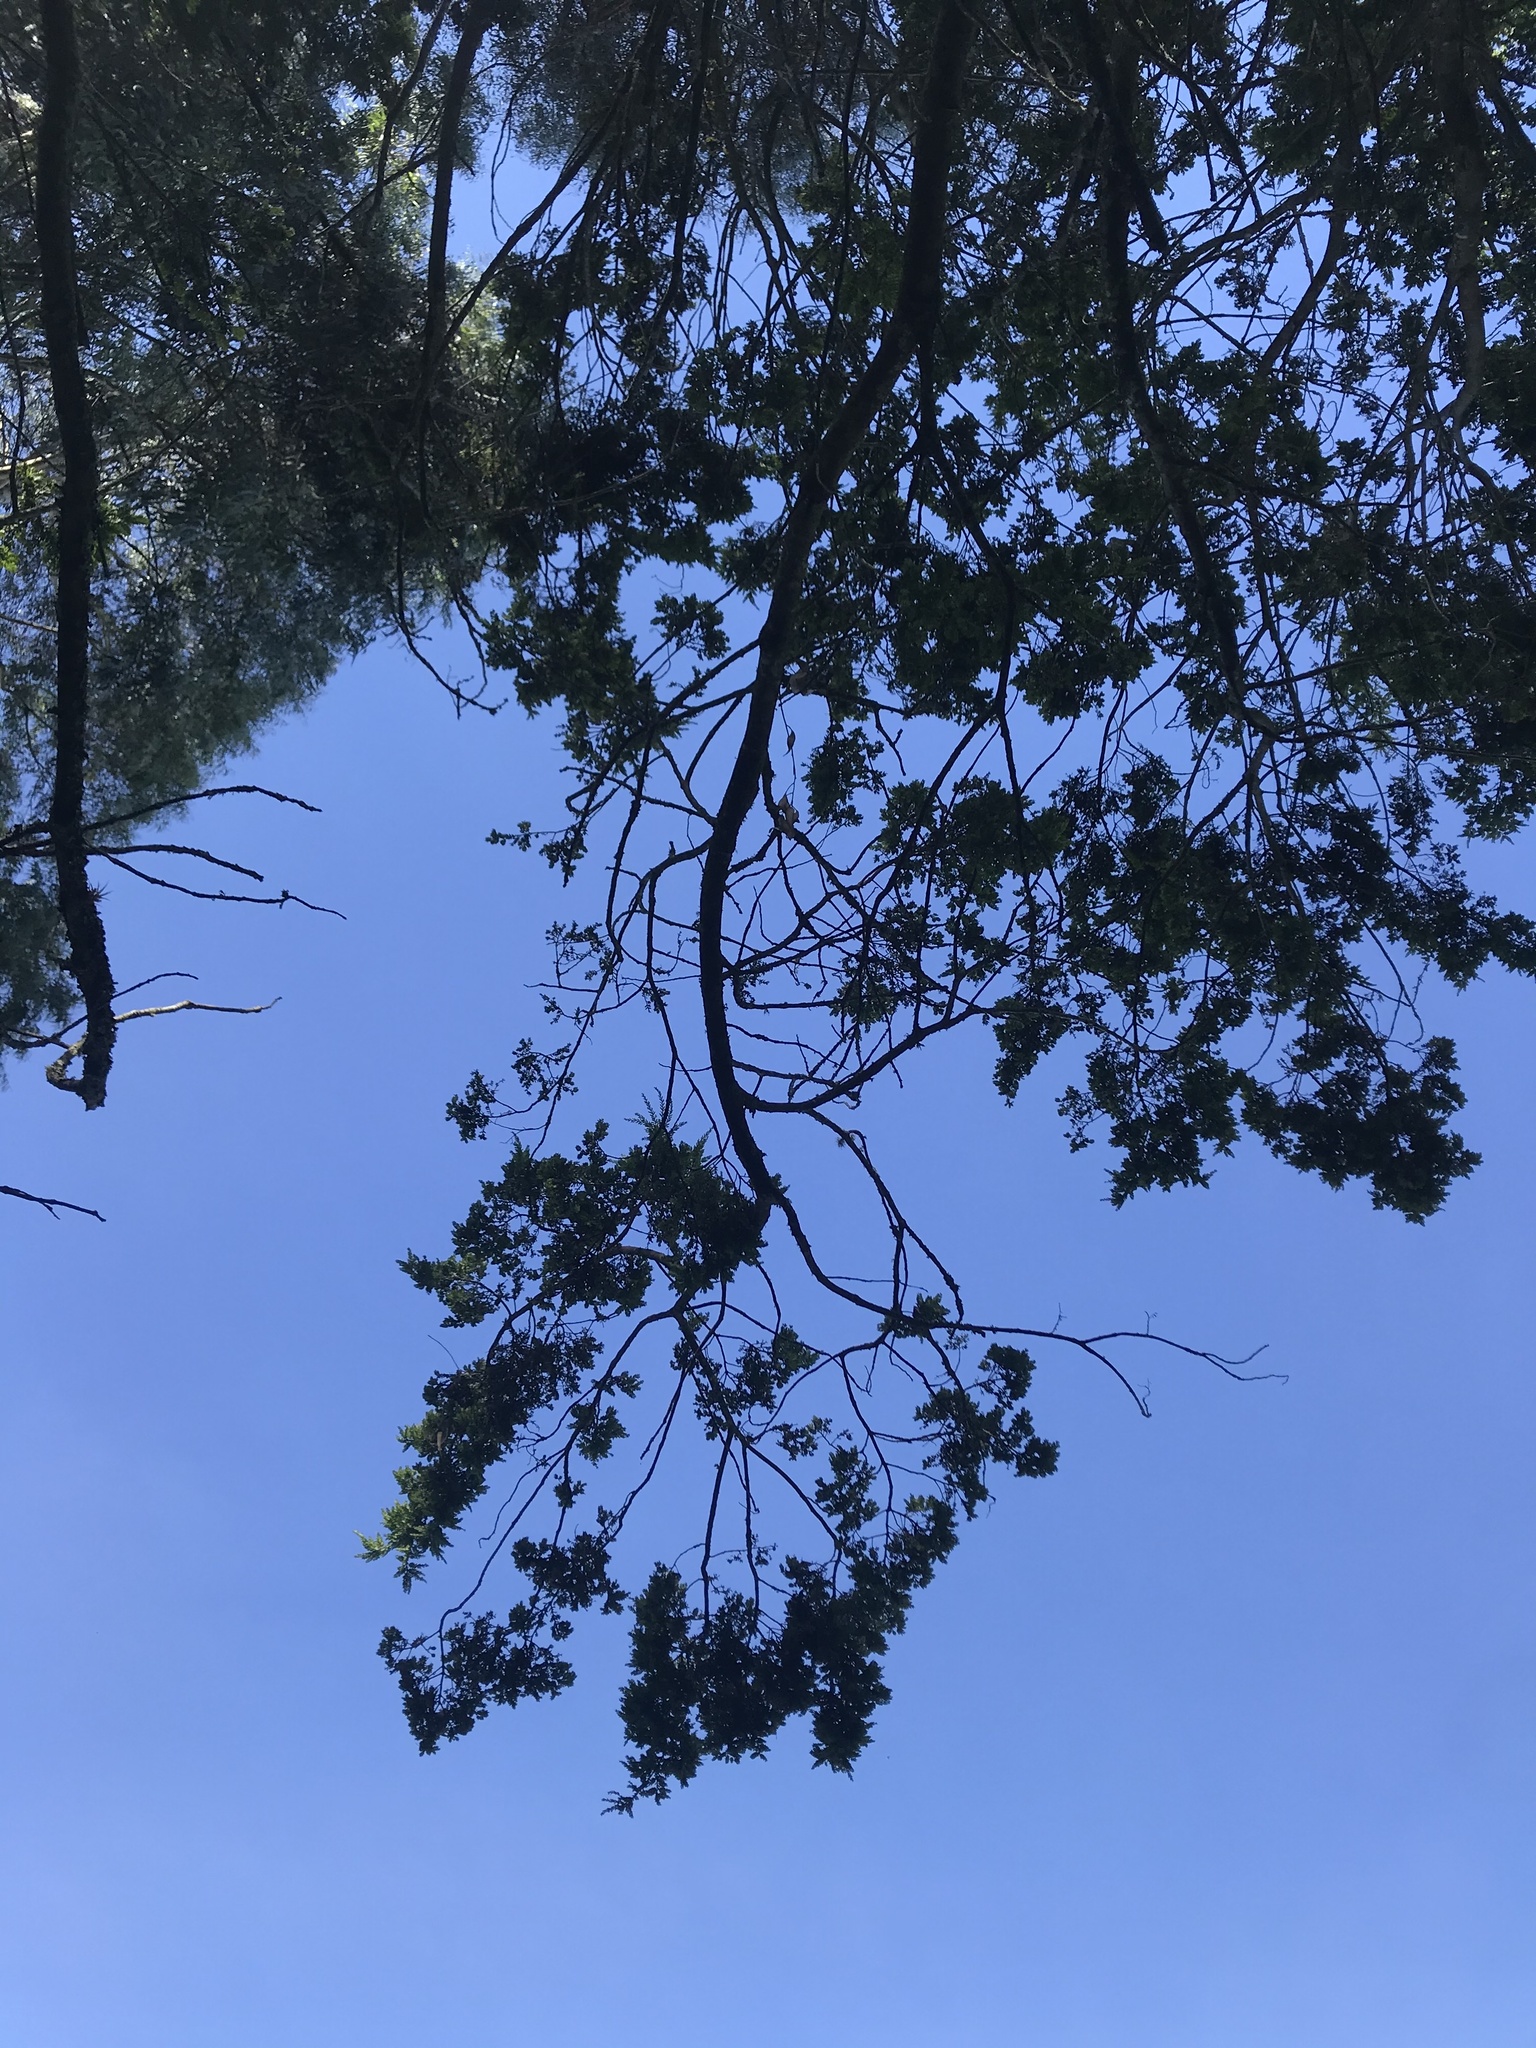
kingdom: Plantae
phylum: Tracheophyta
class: Pinopsida
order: Pinales
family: Podocarpaceae
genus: Prumnopitys
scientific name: Prumnopitys montana
